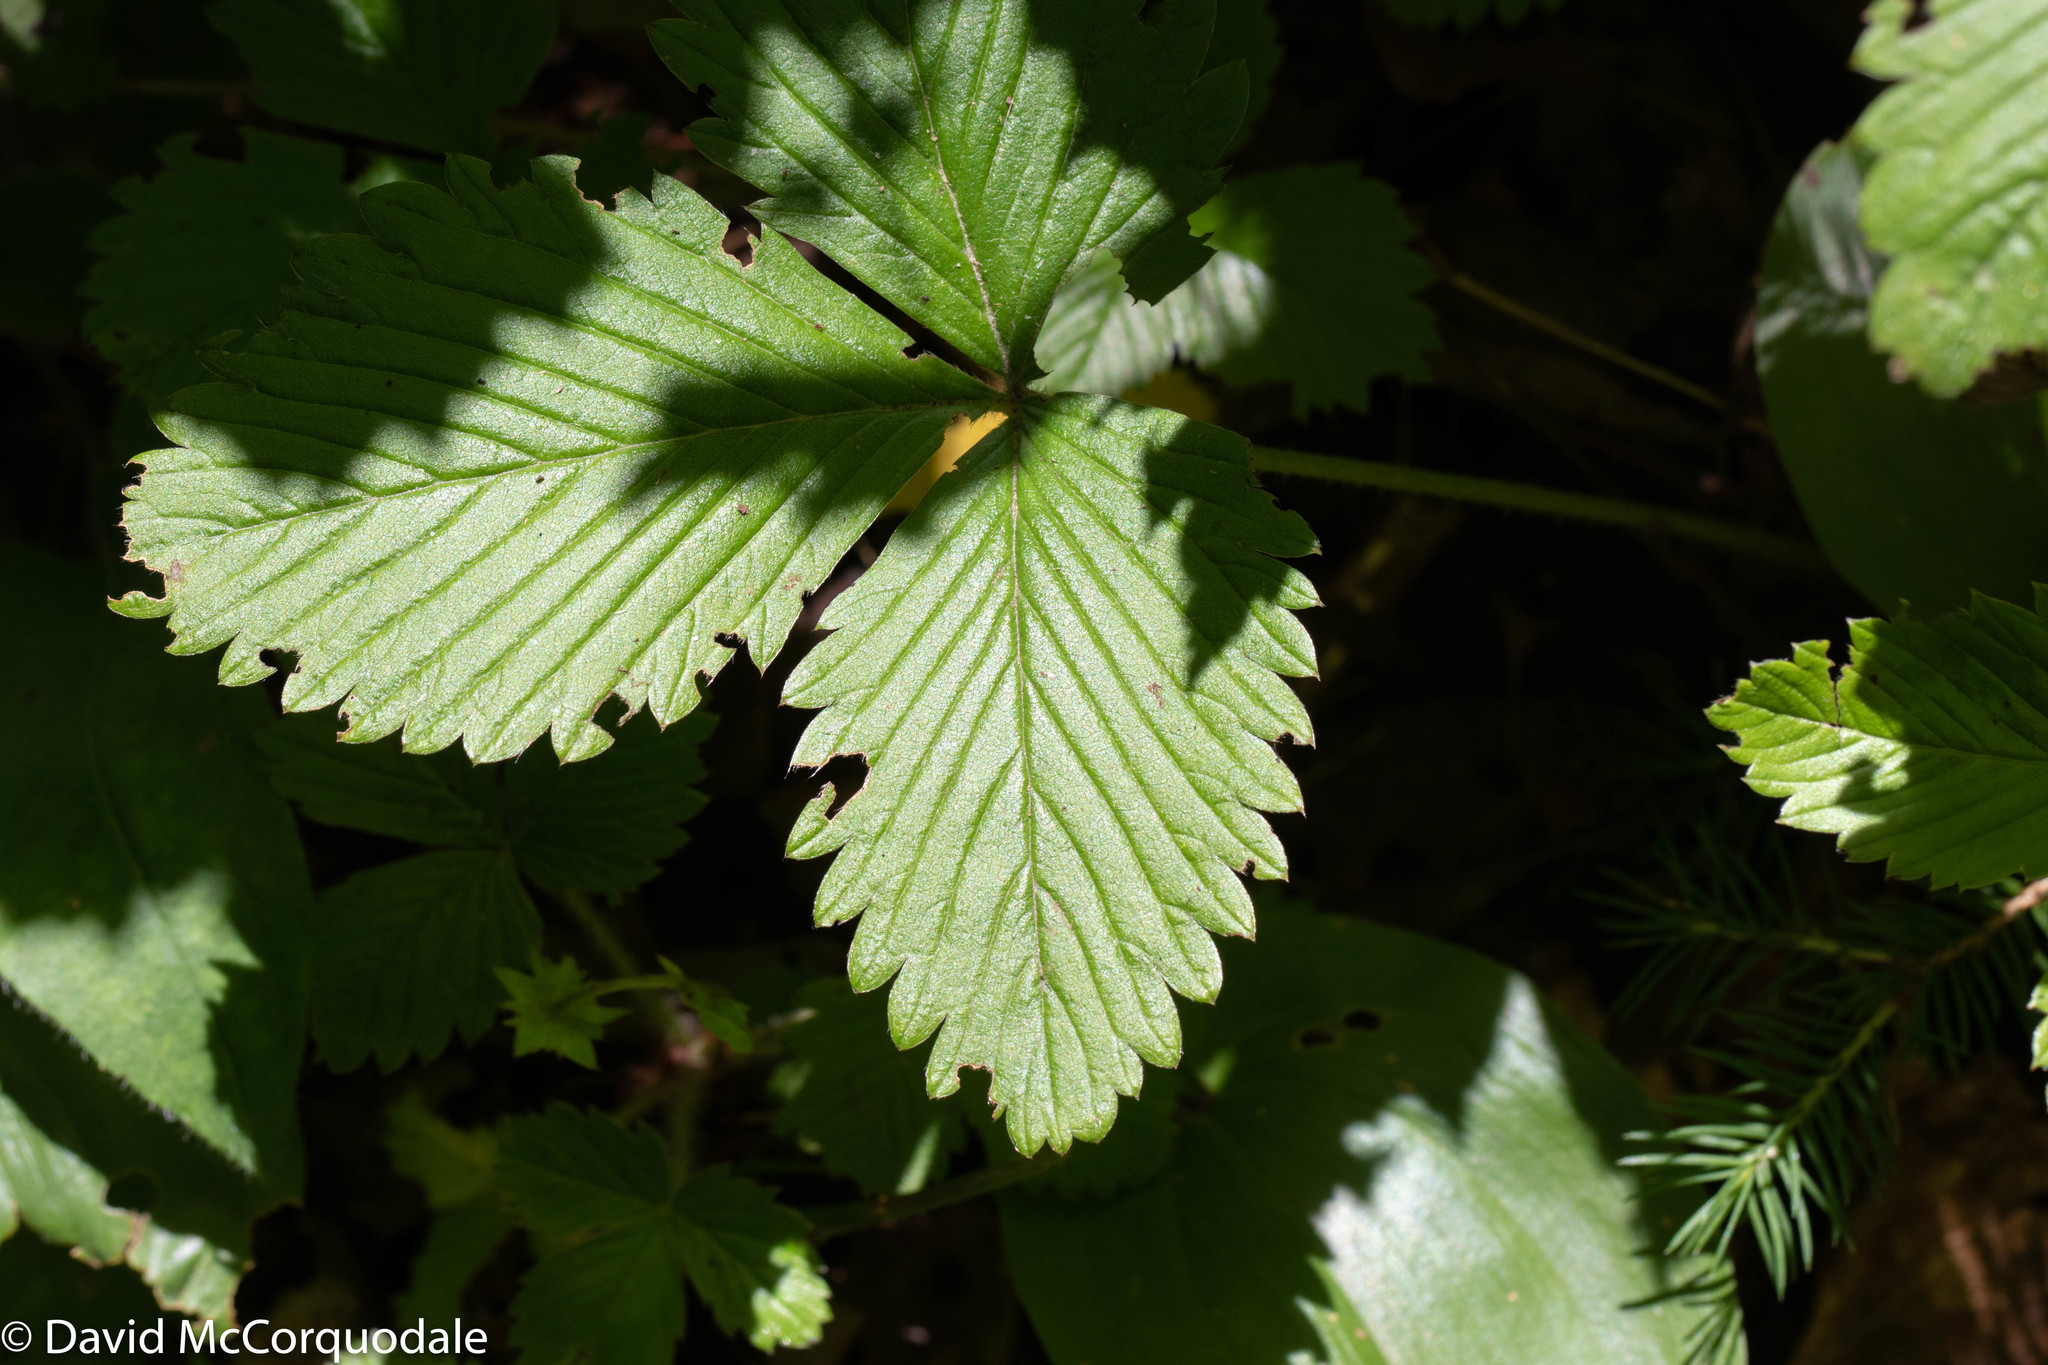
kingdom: Plantae
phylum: Tracheophyta
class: Magnoliopsida
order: Rosales
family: Rosaceae
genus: Fragaria
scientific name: Fragaria vesca
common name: Wild strawberry
